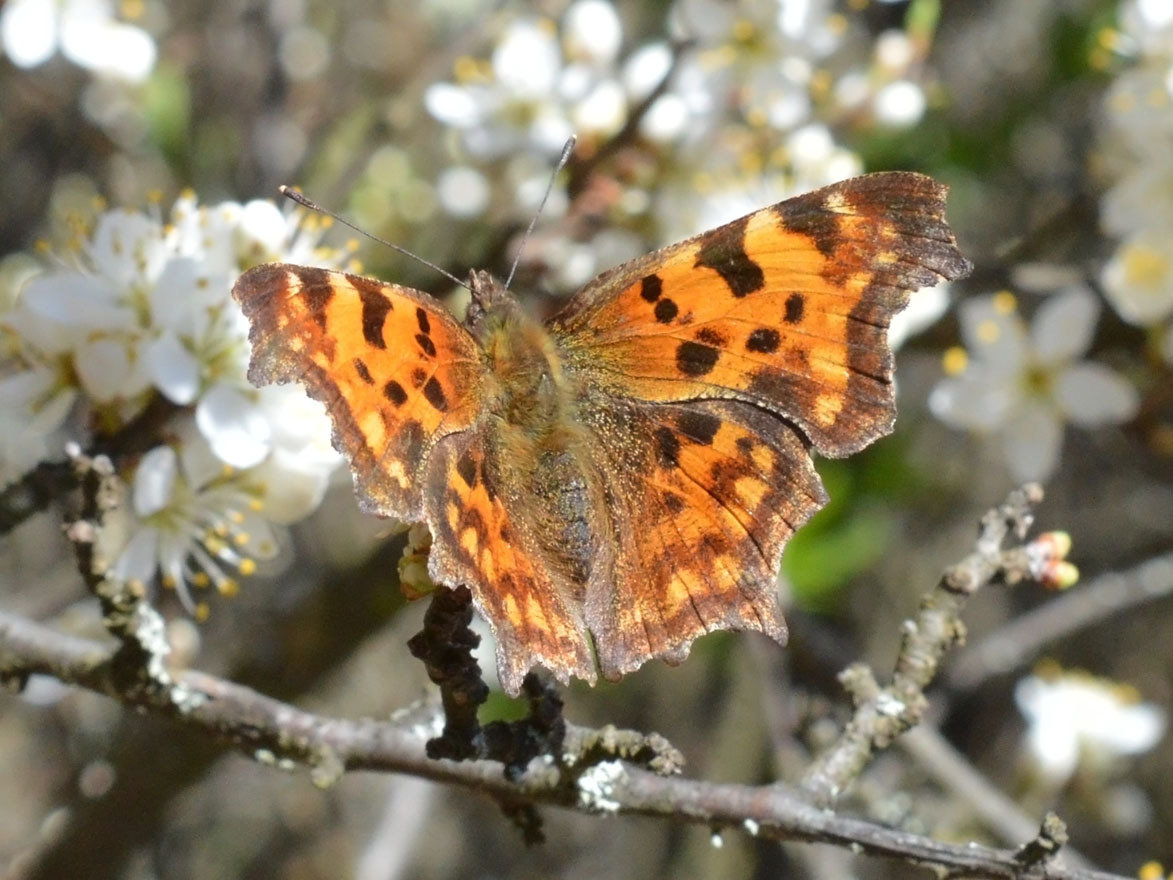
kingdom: Animalia
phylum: Arthropoda
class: Insecta
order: Lepidoptera
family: Nymphalidae
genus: Polygonia
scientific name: Polygonia c-album
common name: Comma
